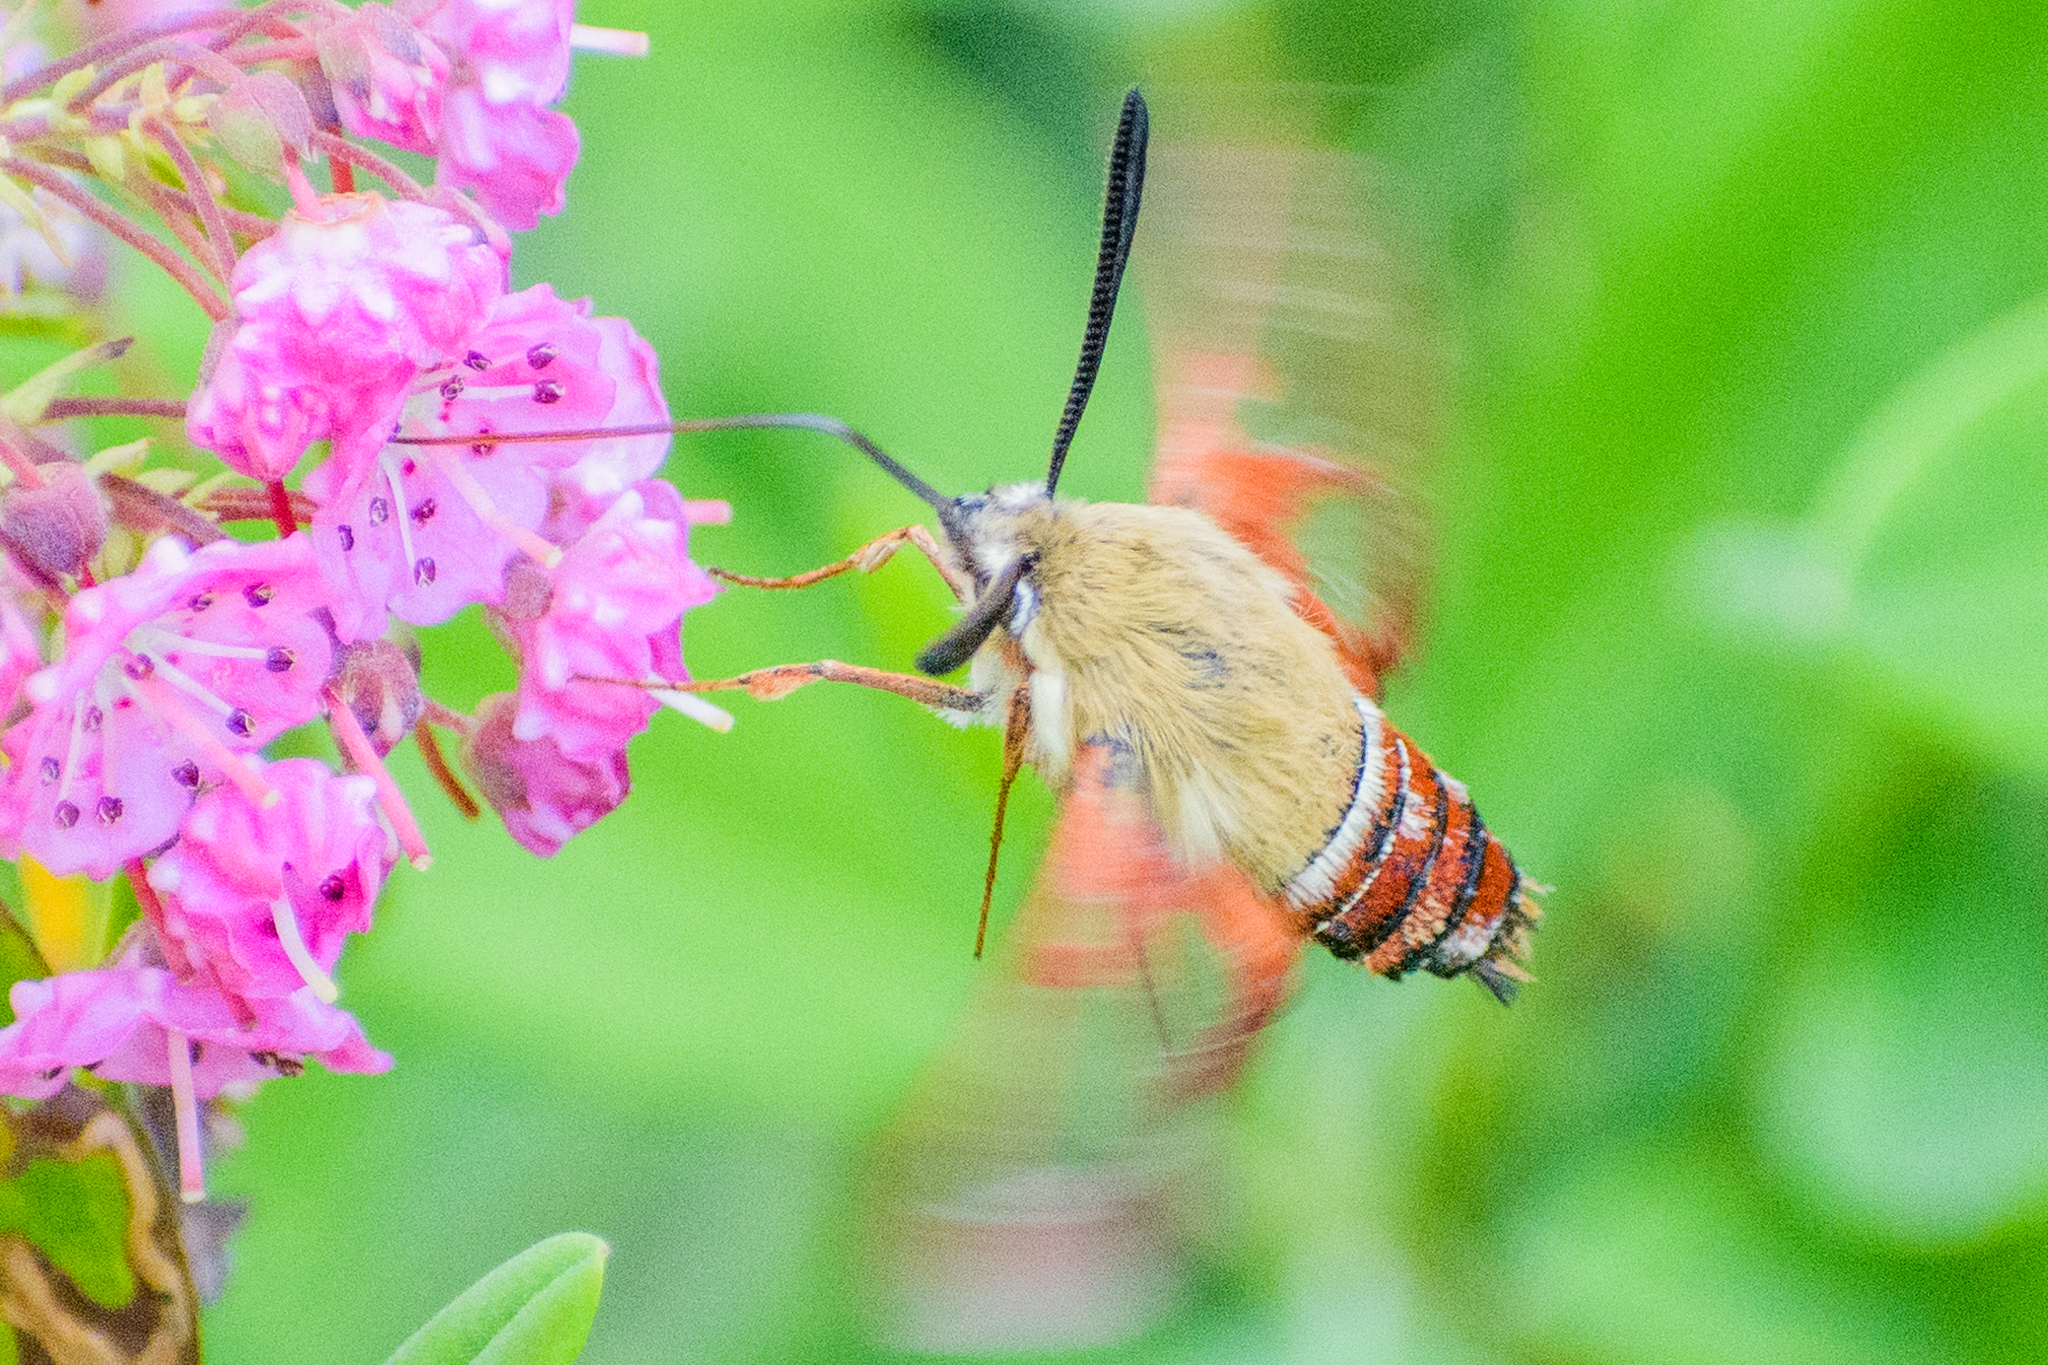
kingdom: Animalia
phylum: Arthropoda
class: Insecta
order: Lepidoptera
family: Sphingidae
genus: Hemaris
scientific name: Hemaris gracilis
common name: Graceful clearwing
